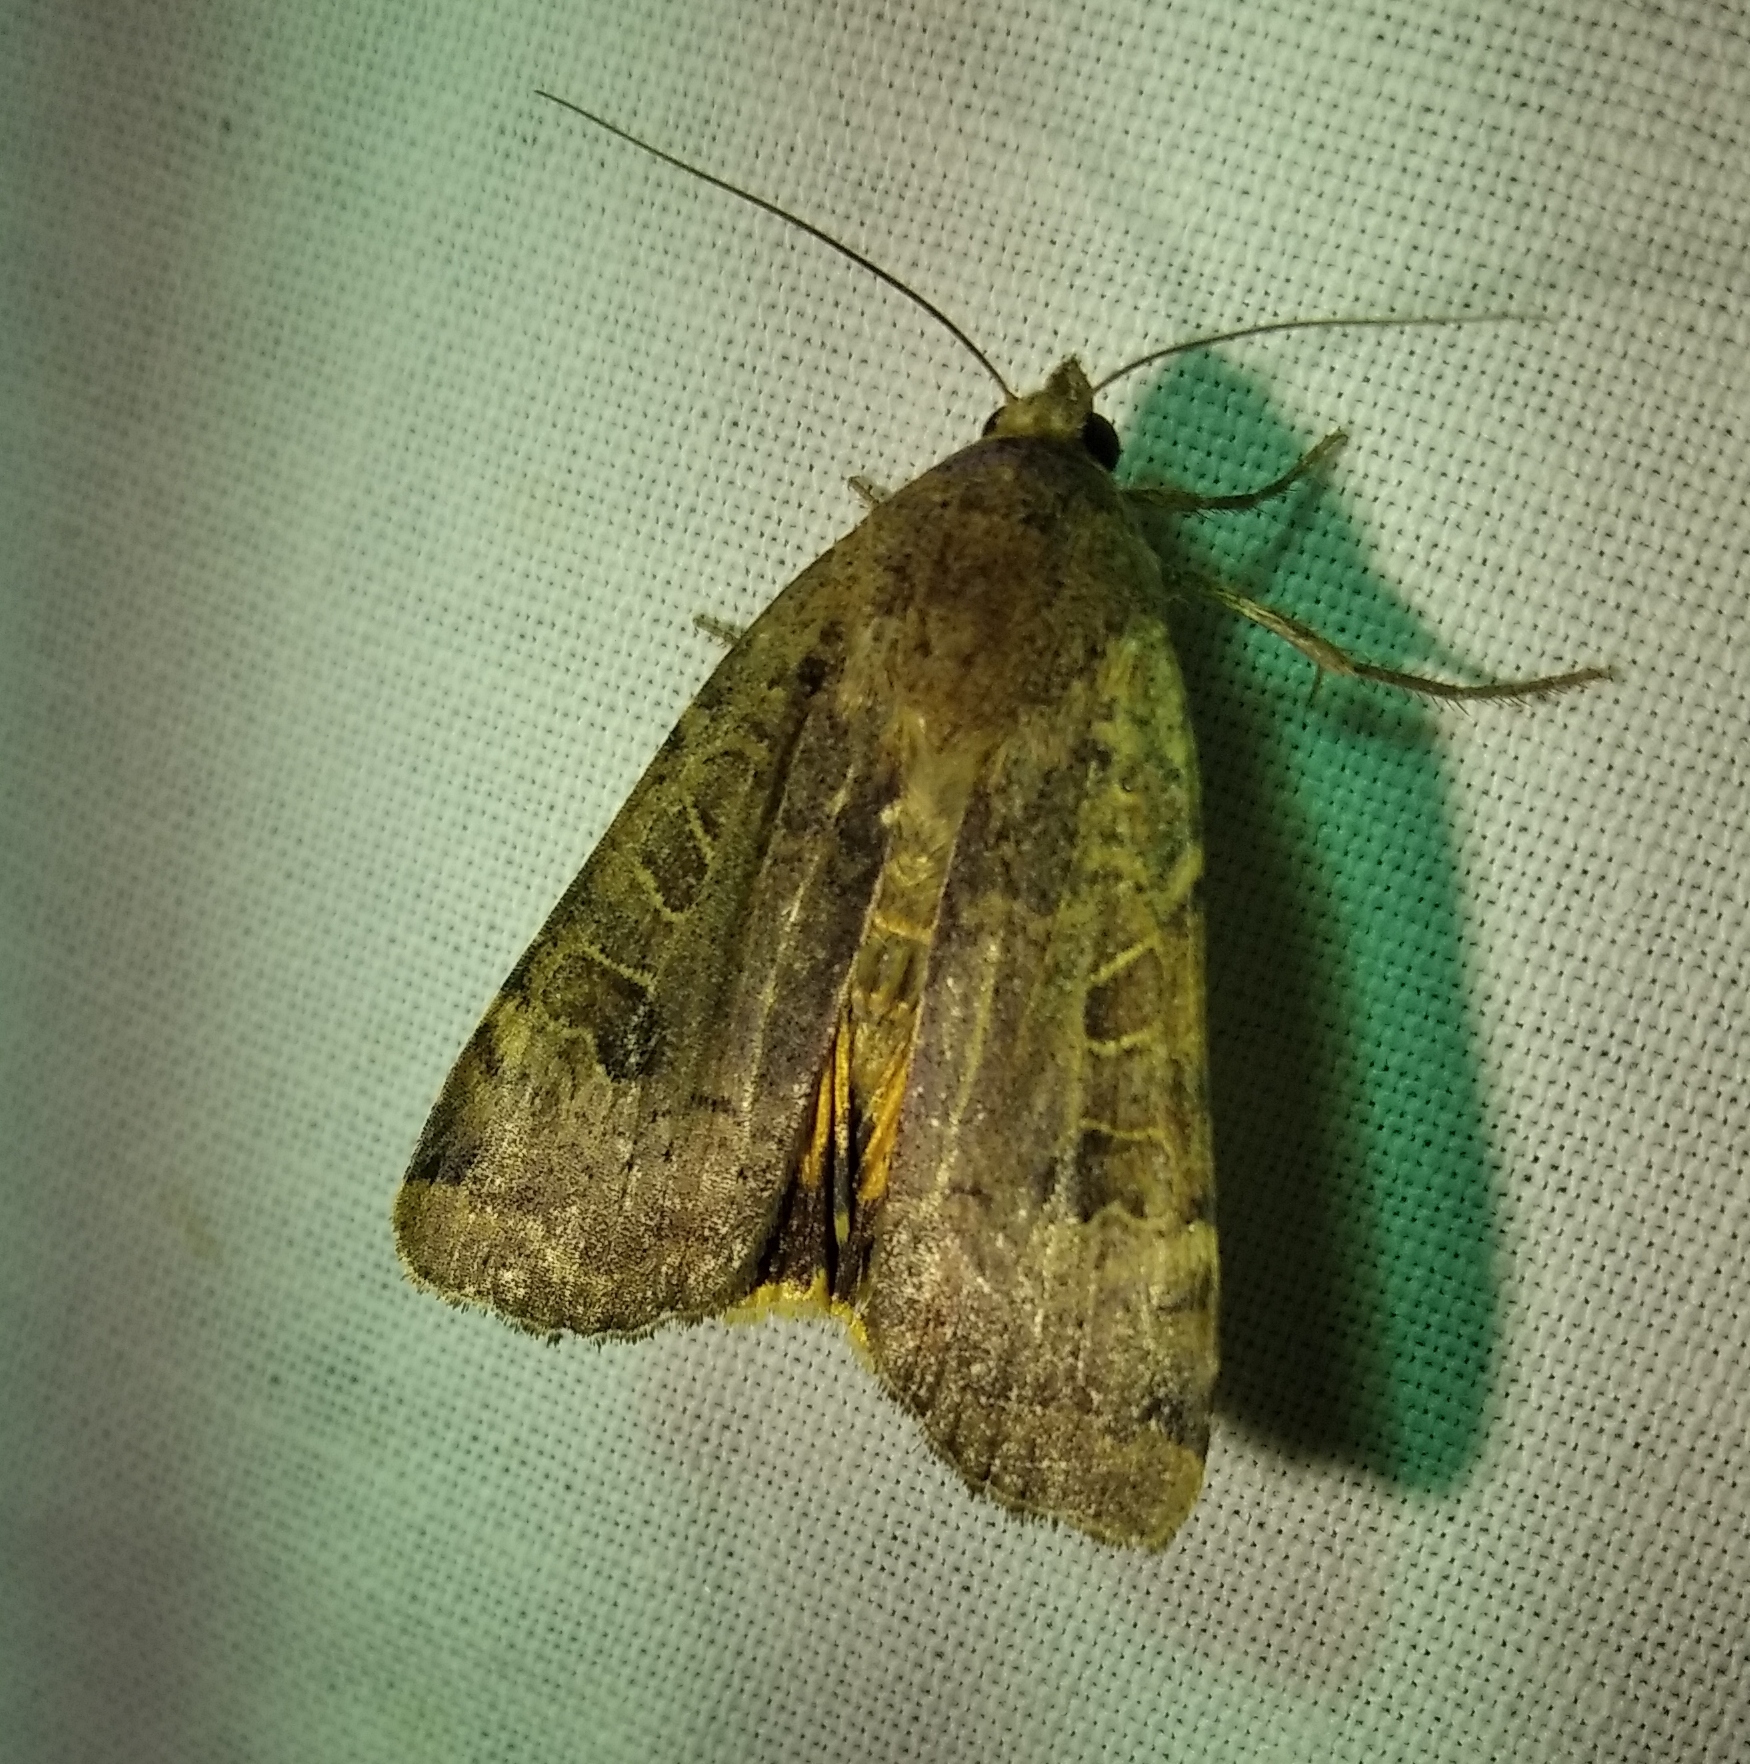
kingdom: Animalia
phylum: Arthropoda
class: Insecta
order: Lepidoptera
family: Noctuidae
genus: Noctua
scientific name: Noctua interposita
